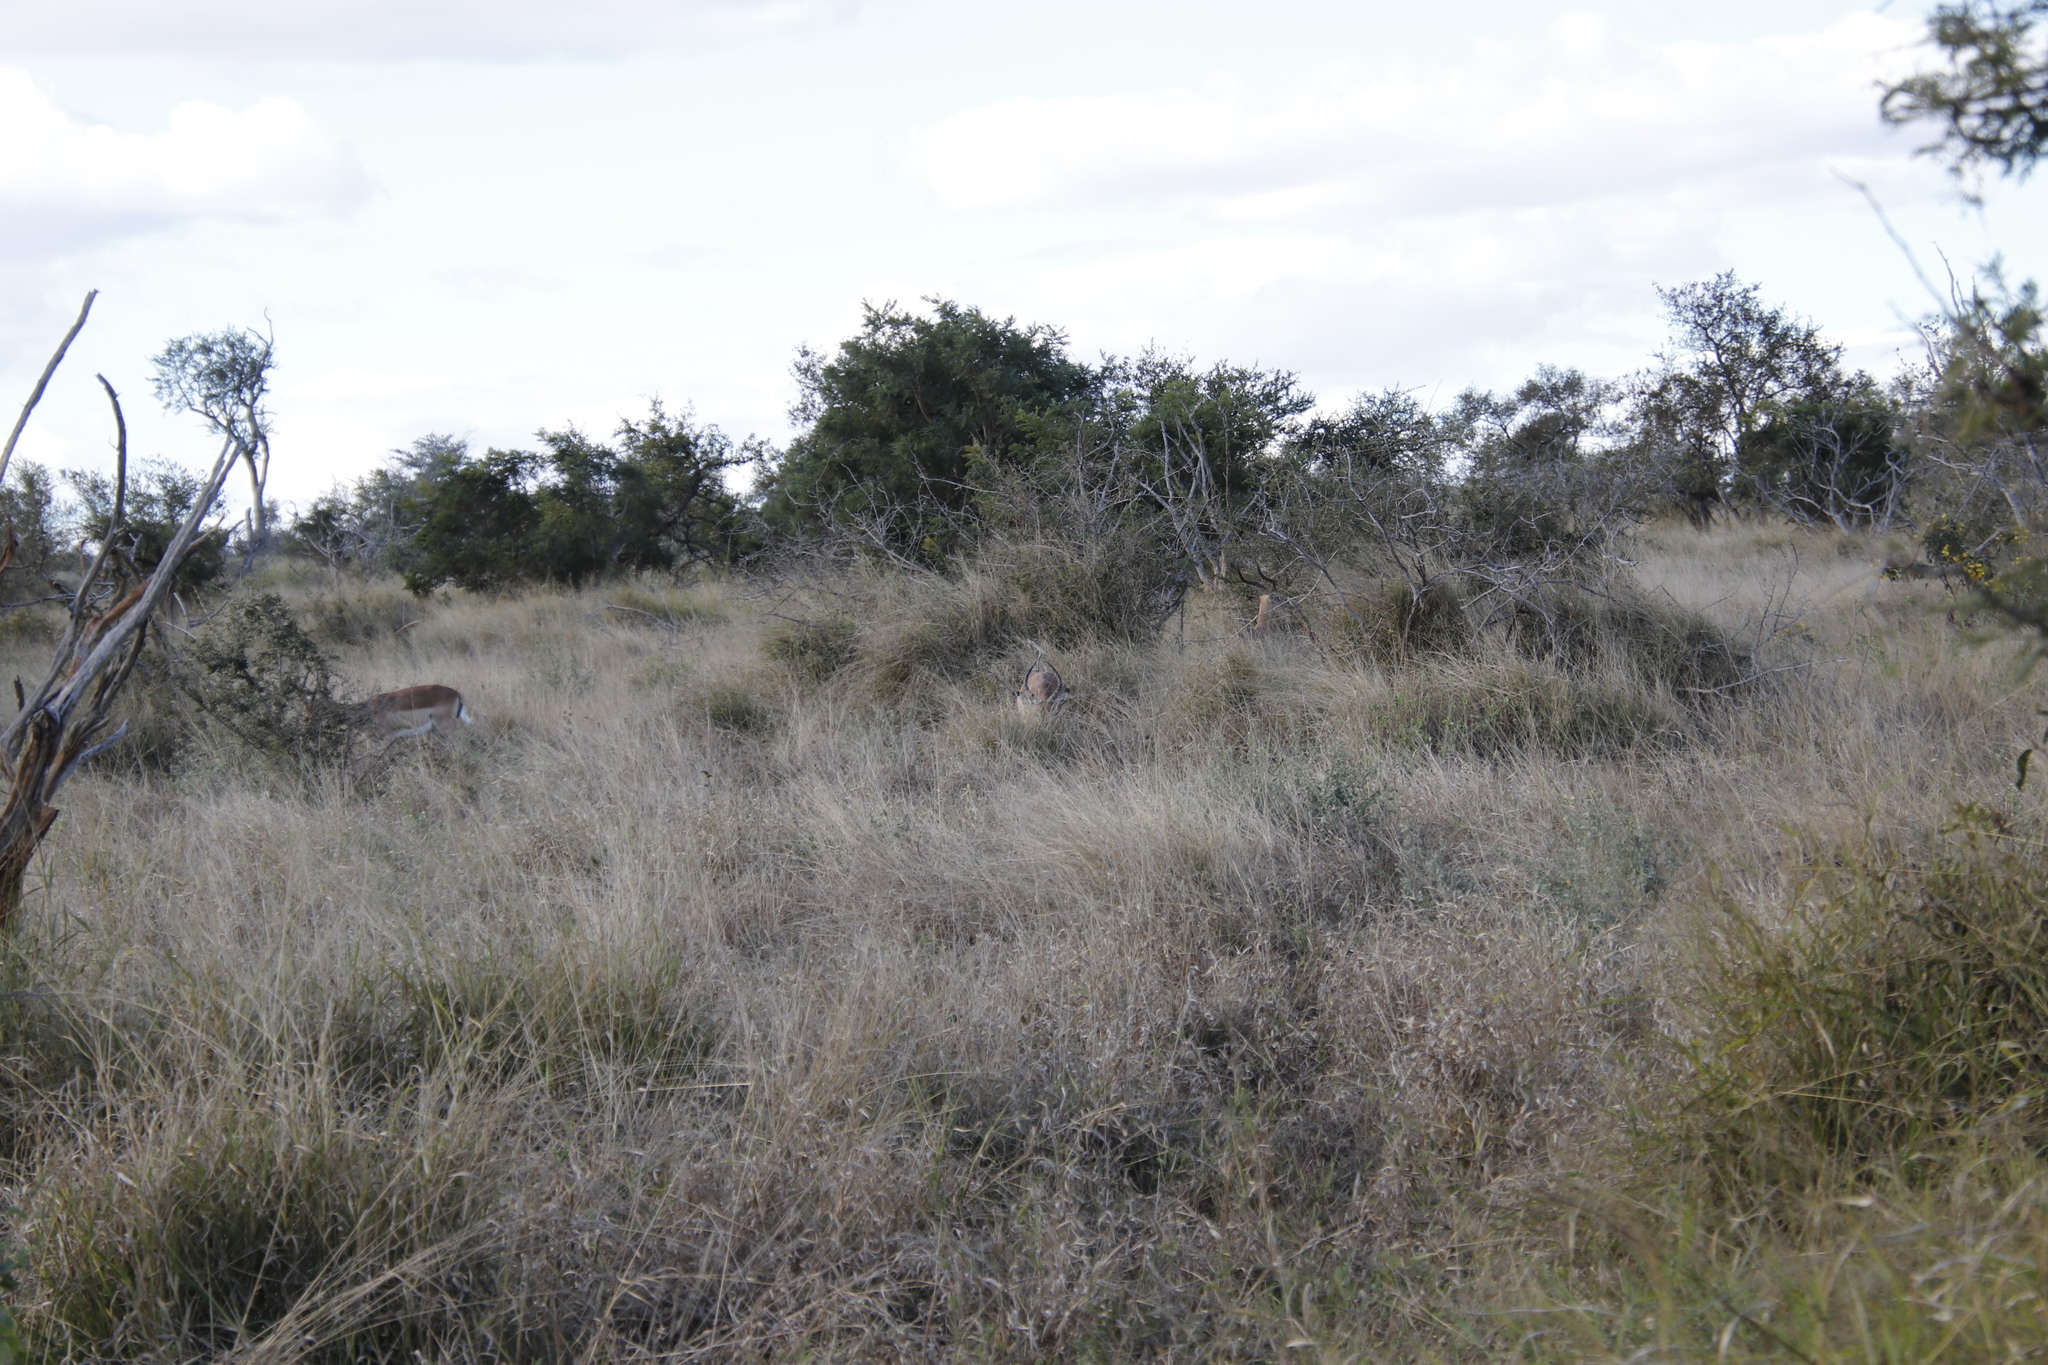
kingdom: Animalia
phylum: Chordata
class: Mammalia
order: Artiodactyla
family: Bovidae
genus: Aepyceros
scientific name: Aepyceros melampus
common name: Impala
